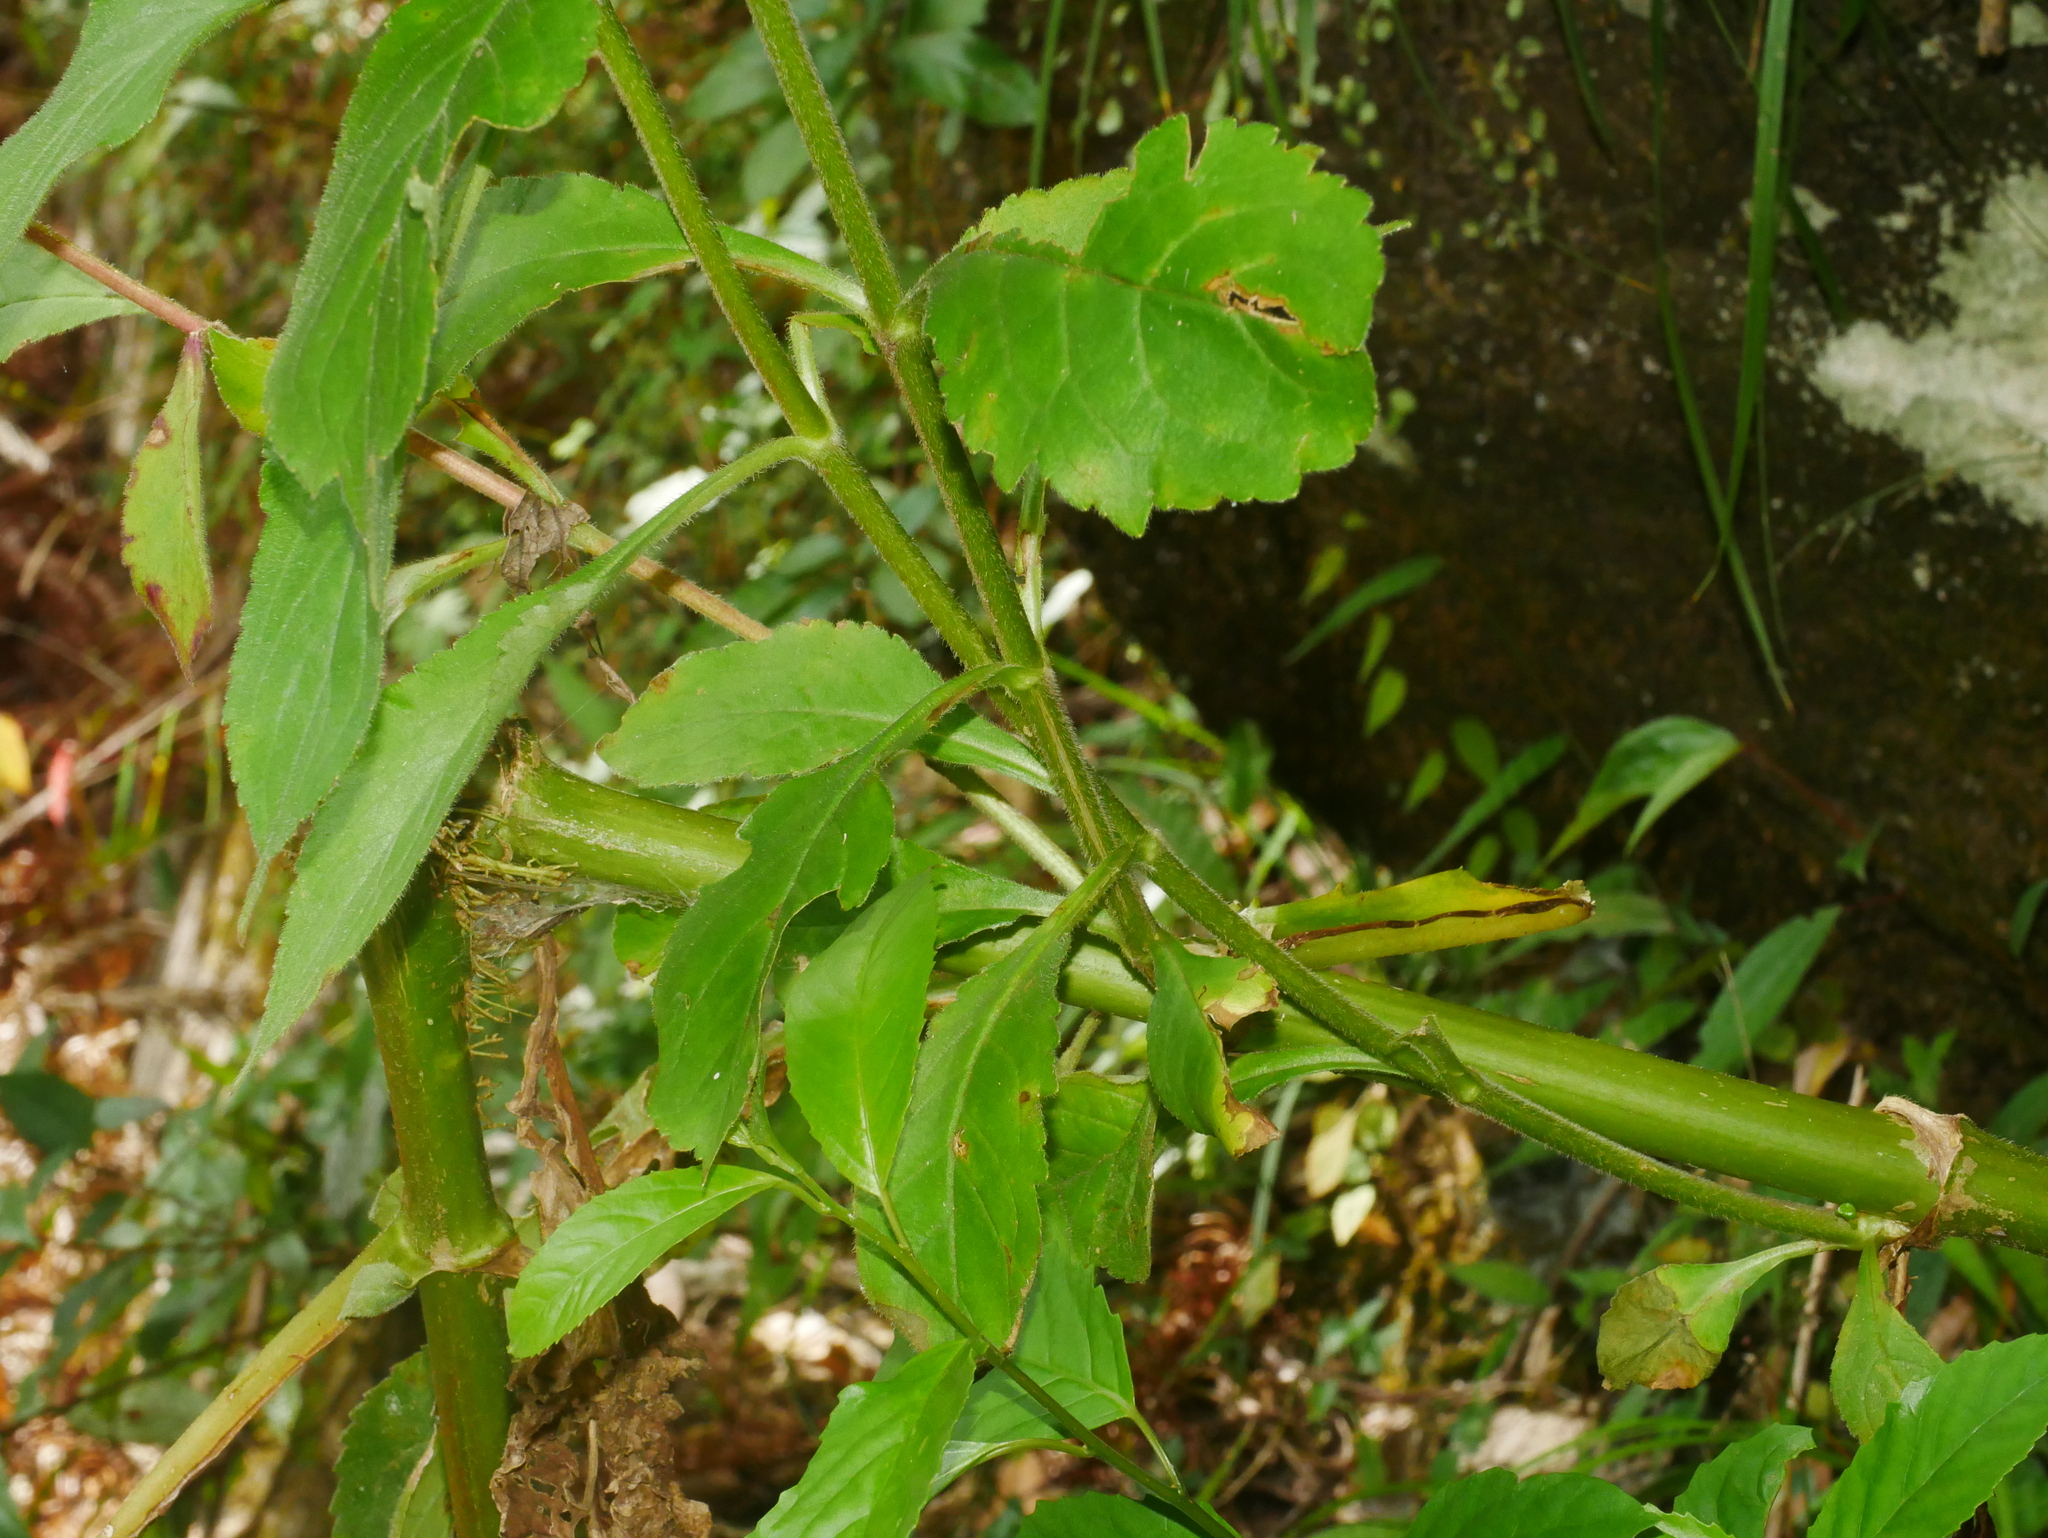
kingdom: Plantae
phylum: Tracheophyta
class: Magnoliopsida
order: Dipsacales
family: Caprifoliaceae
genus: Patrinia
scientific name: Patrinia monandra
